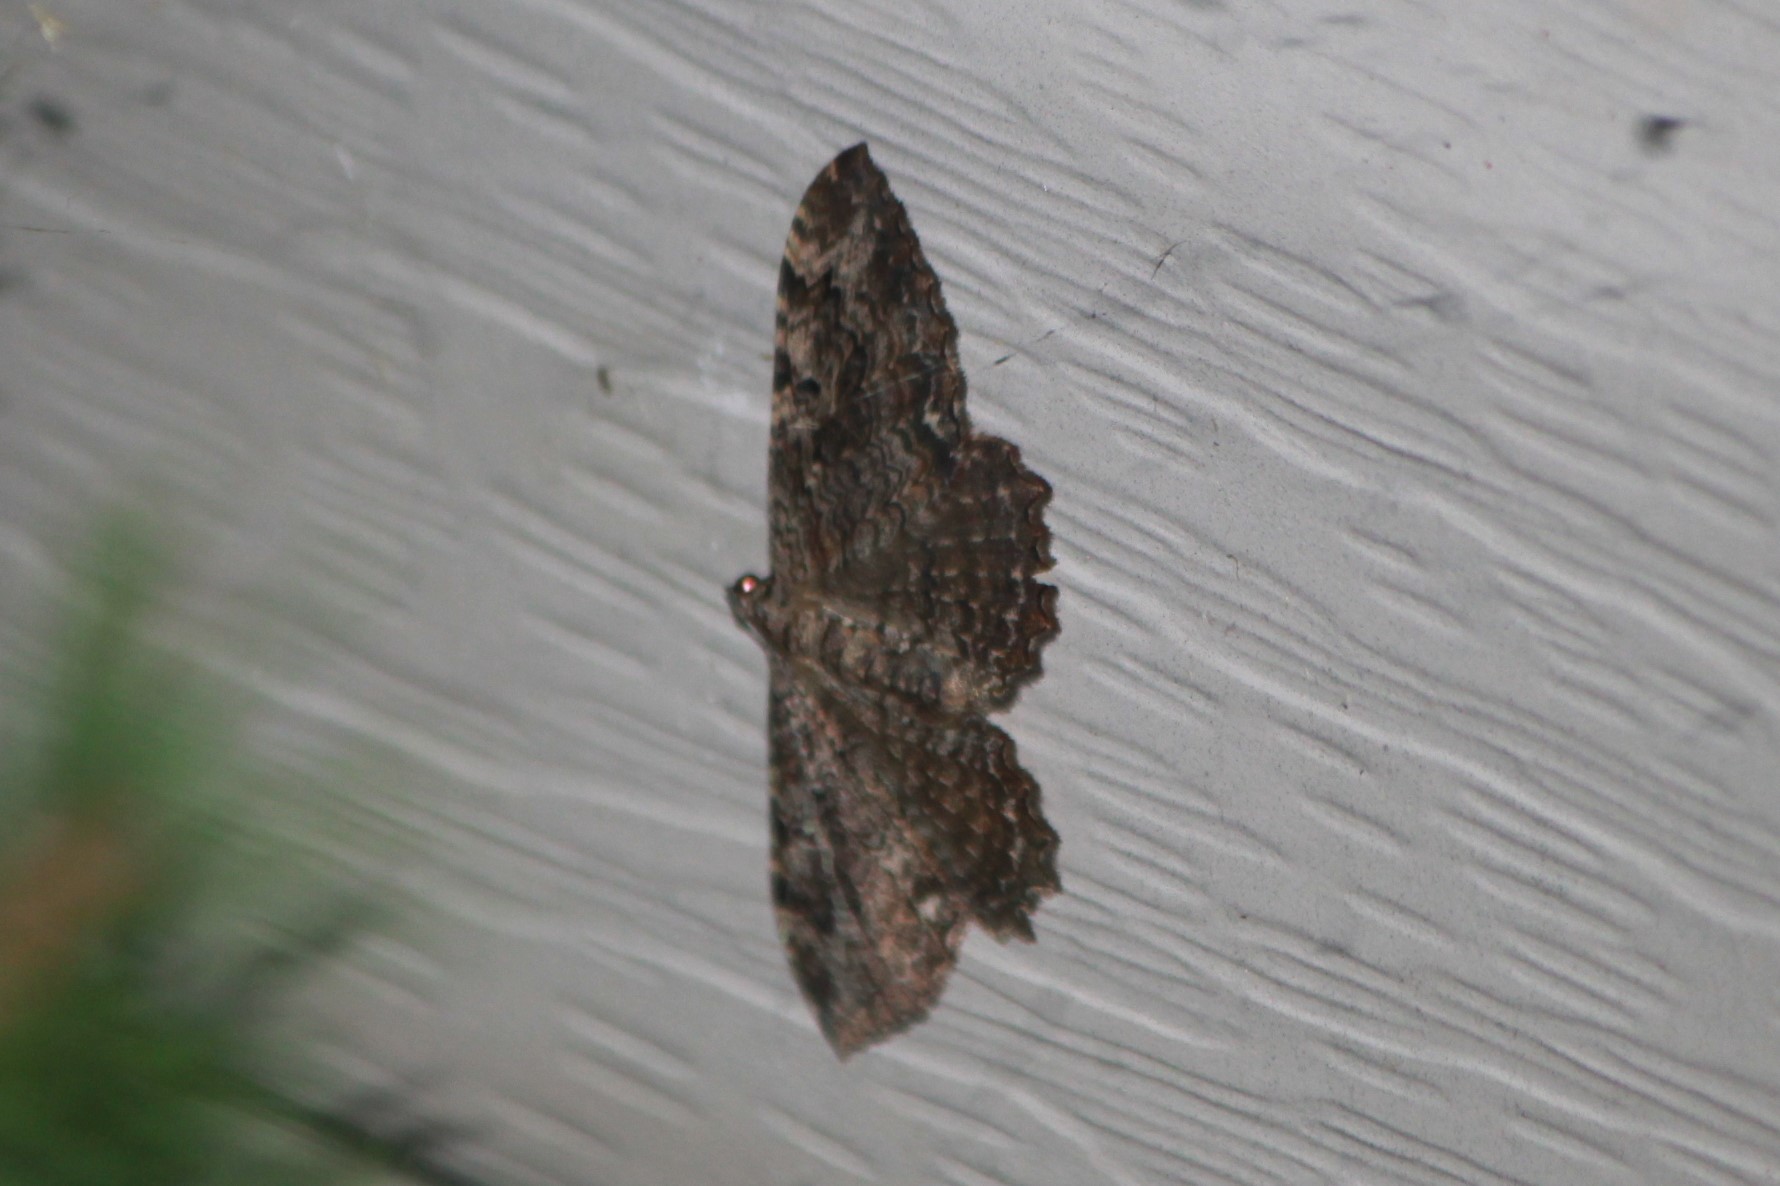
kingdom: Animalia
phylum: Arthropoda
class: Insecta
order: Lepidoptera
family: Geometridae
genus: Rheumaptera
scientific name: Rheumaptera
